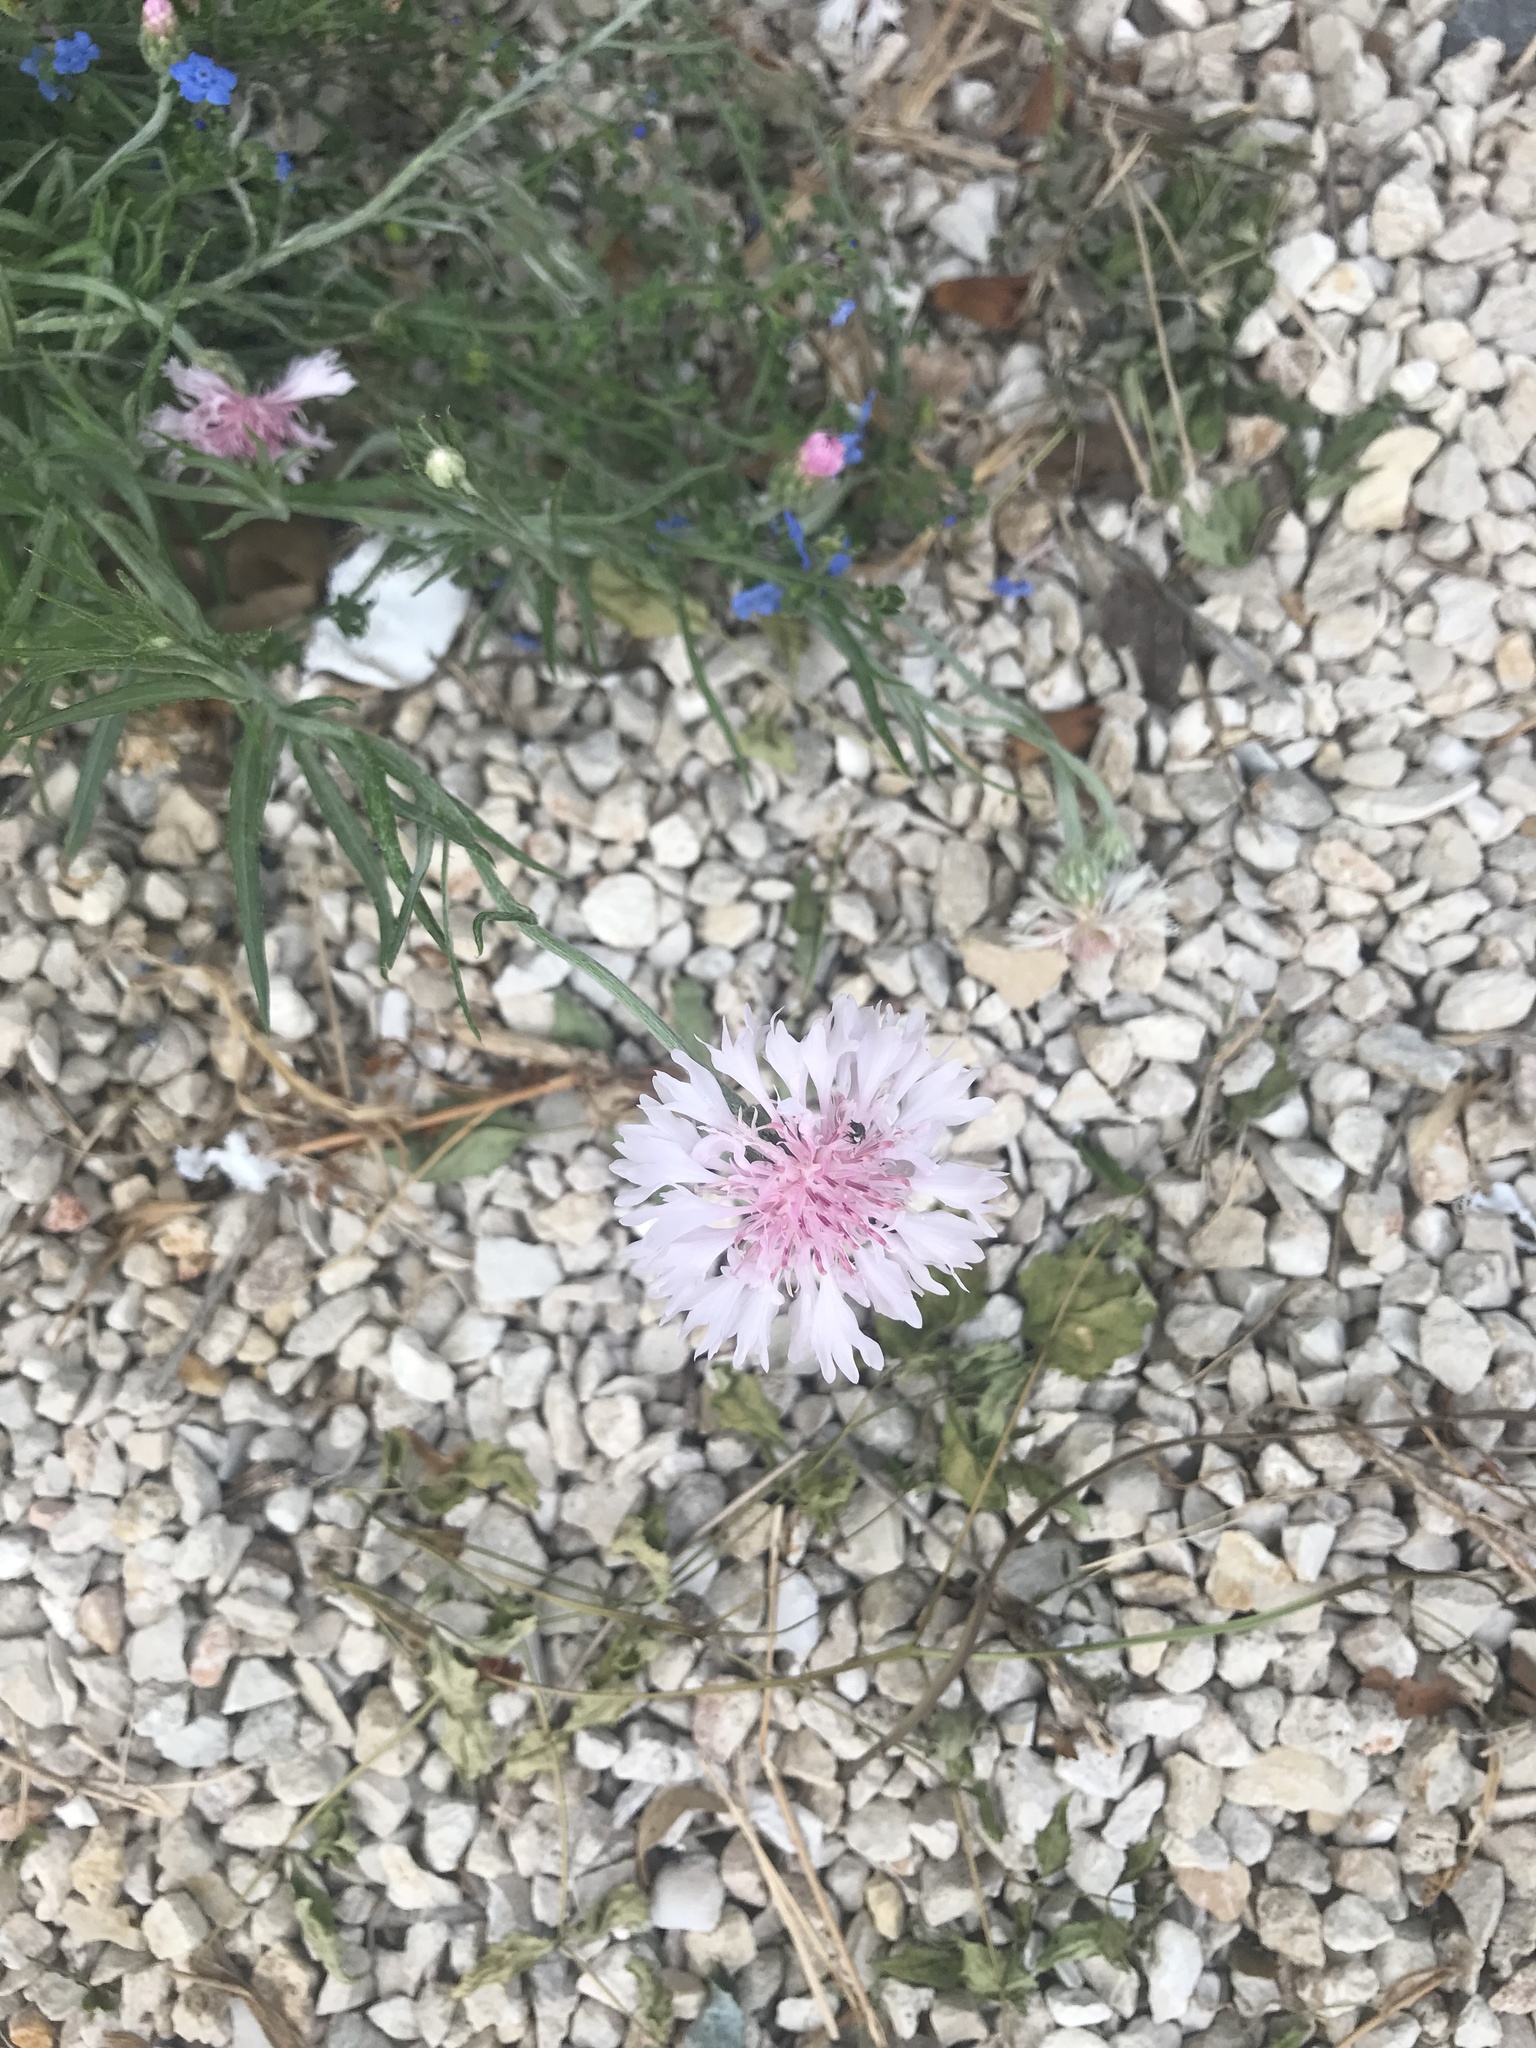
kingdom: Plantae
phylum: Tracheophyta
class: Magnoliopsida
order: Asterales
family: Asteraceae
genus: Centaurea
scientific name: Centaurea cyanus
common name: Cornflower
